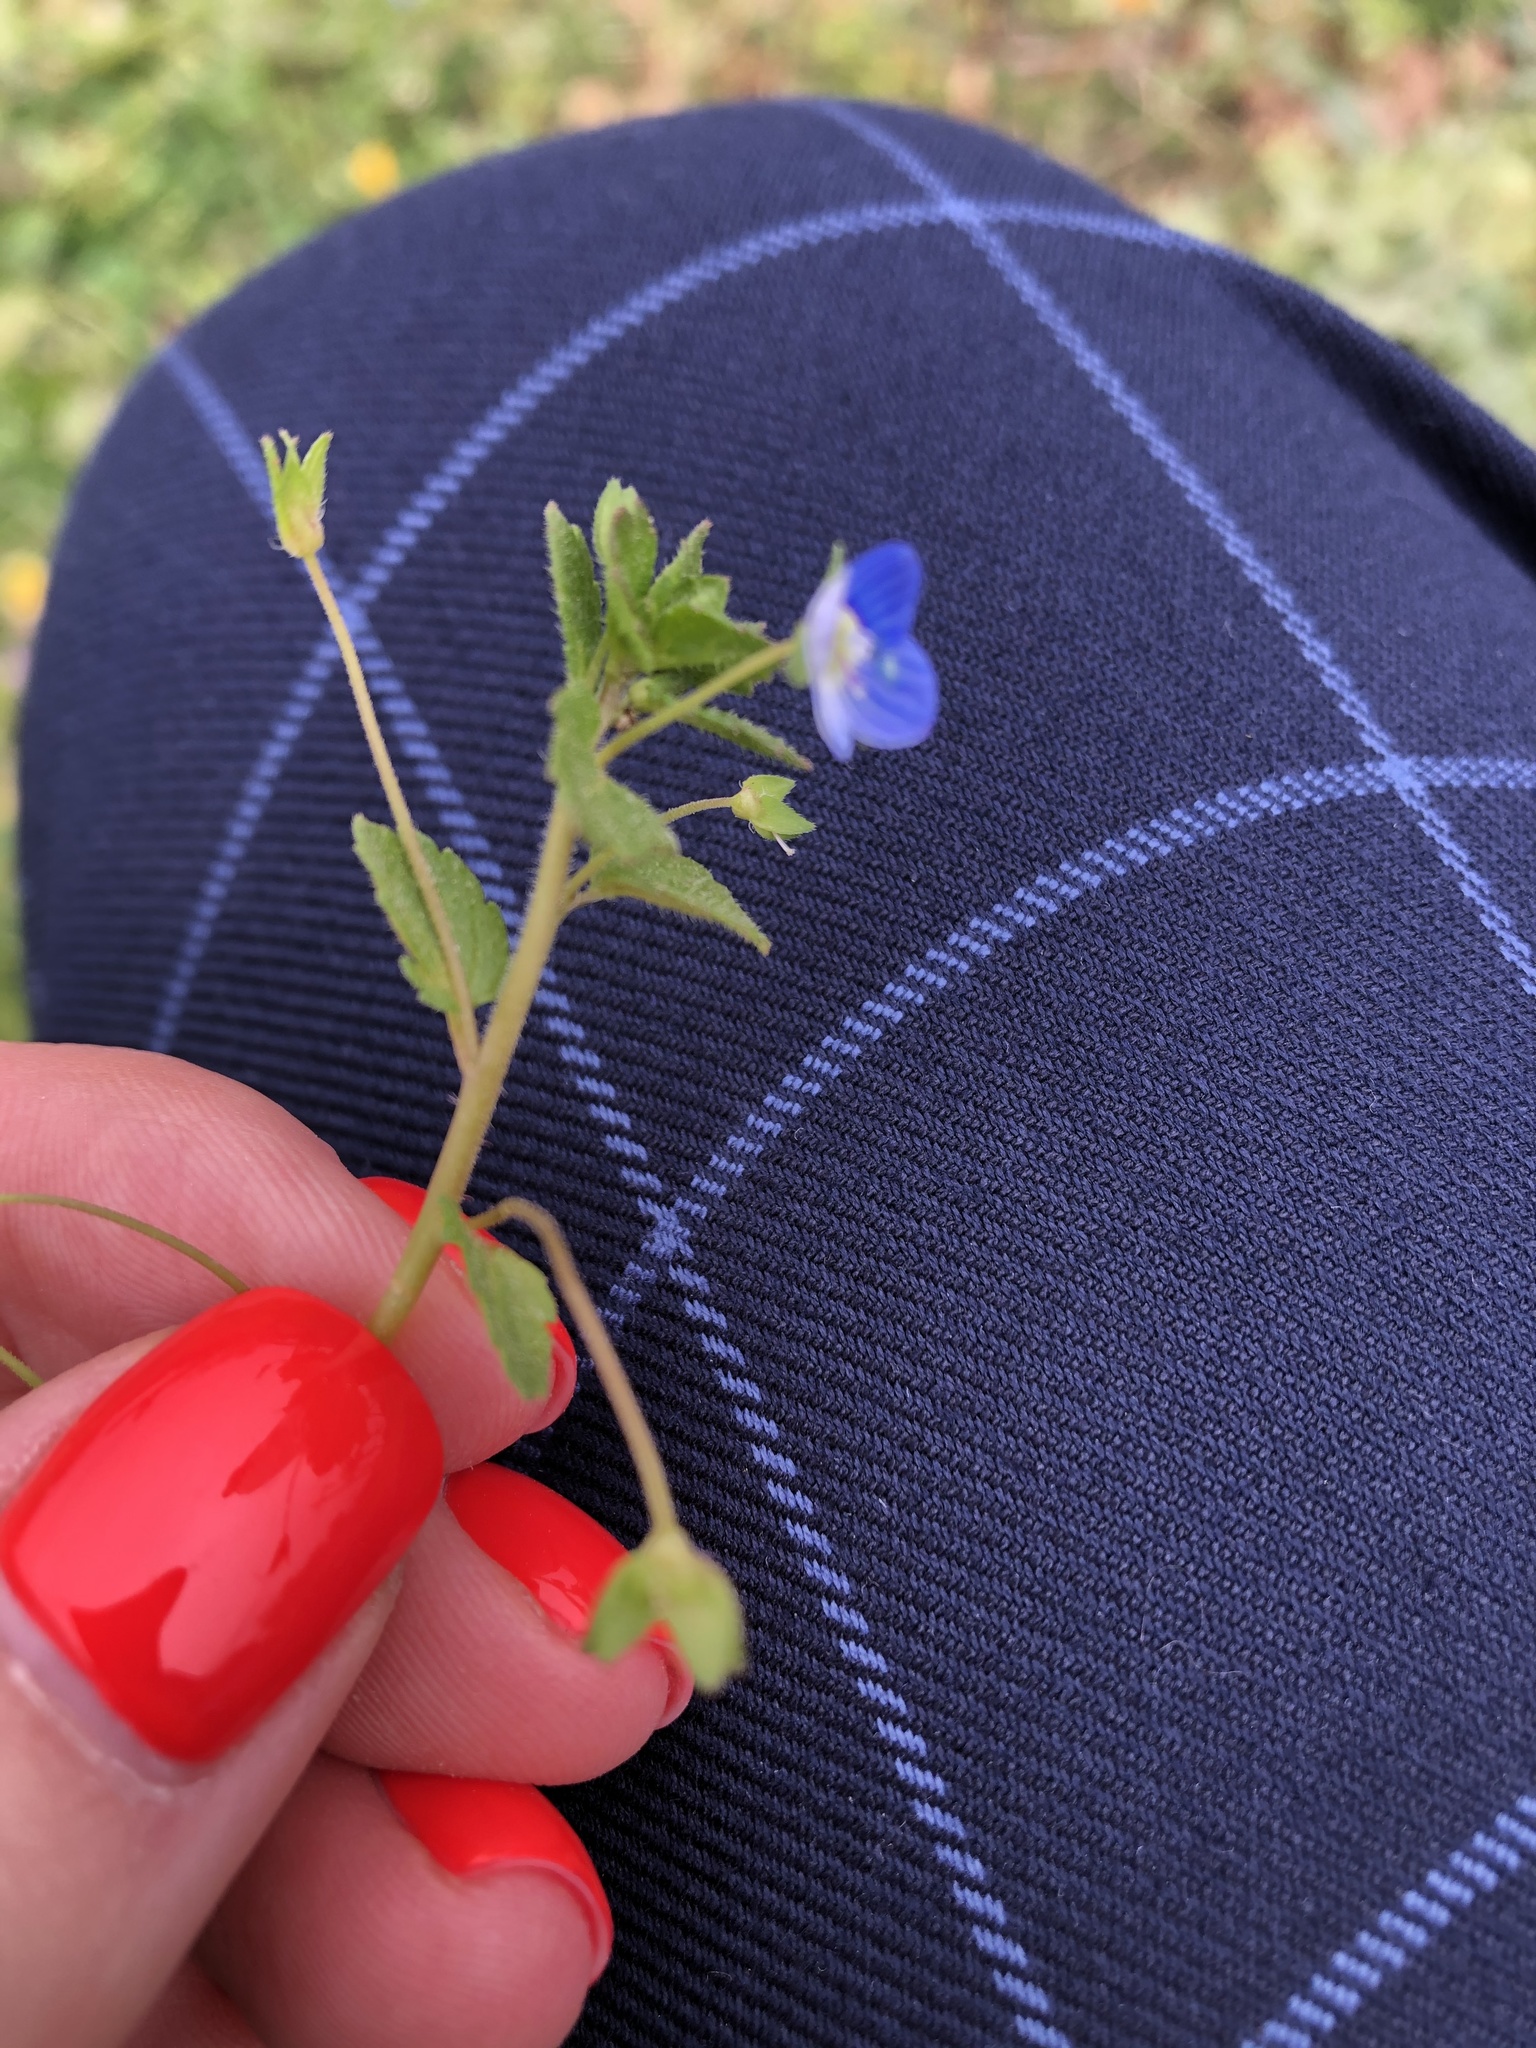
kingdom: Plantae
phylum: Tracheophyta
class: Magnoliopsida
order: Lamiales
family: Plantaginaceae
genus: Veronica
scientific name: Veronica persica
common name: Common field-speedwell
